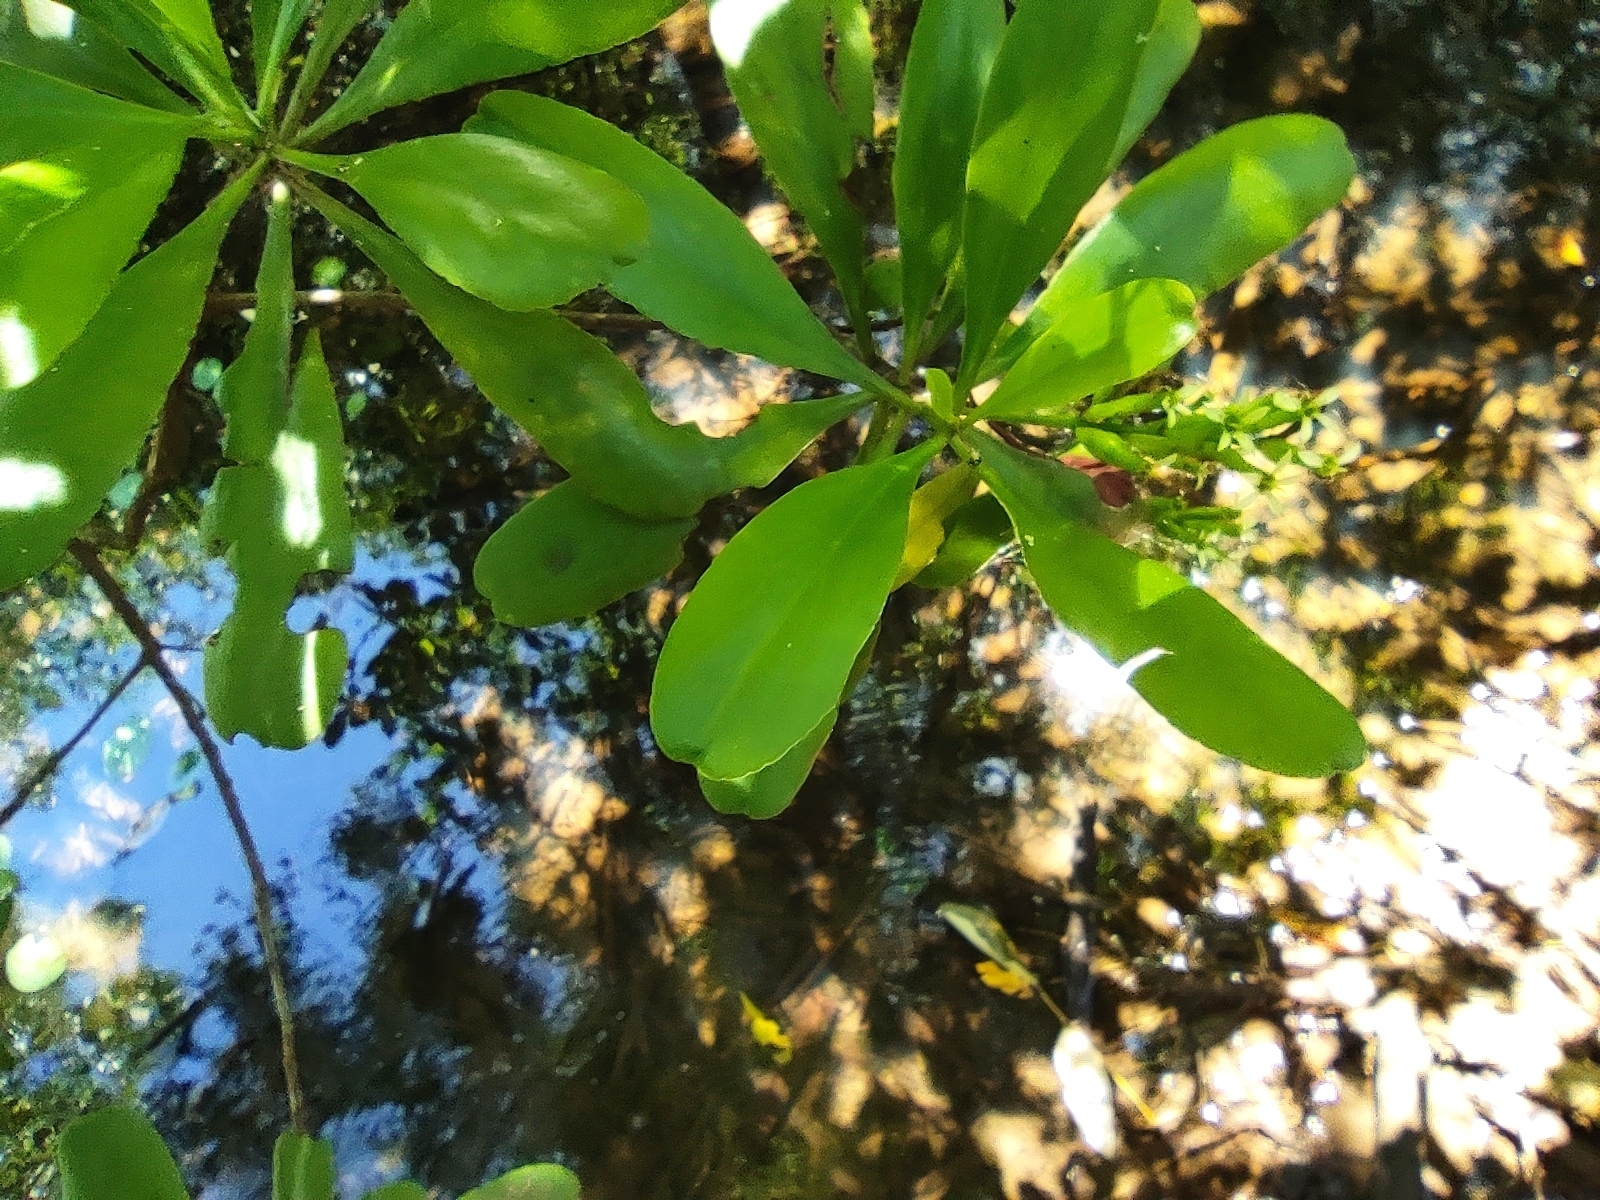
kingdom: Plantae
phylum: Tracheophyta
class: Magnoliopsida
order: Myrtales
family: Combretaceae
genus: Lumnitzera
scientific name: Lumnitzera racemosa
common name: White-flowered black mangrove
